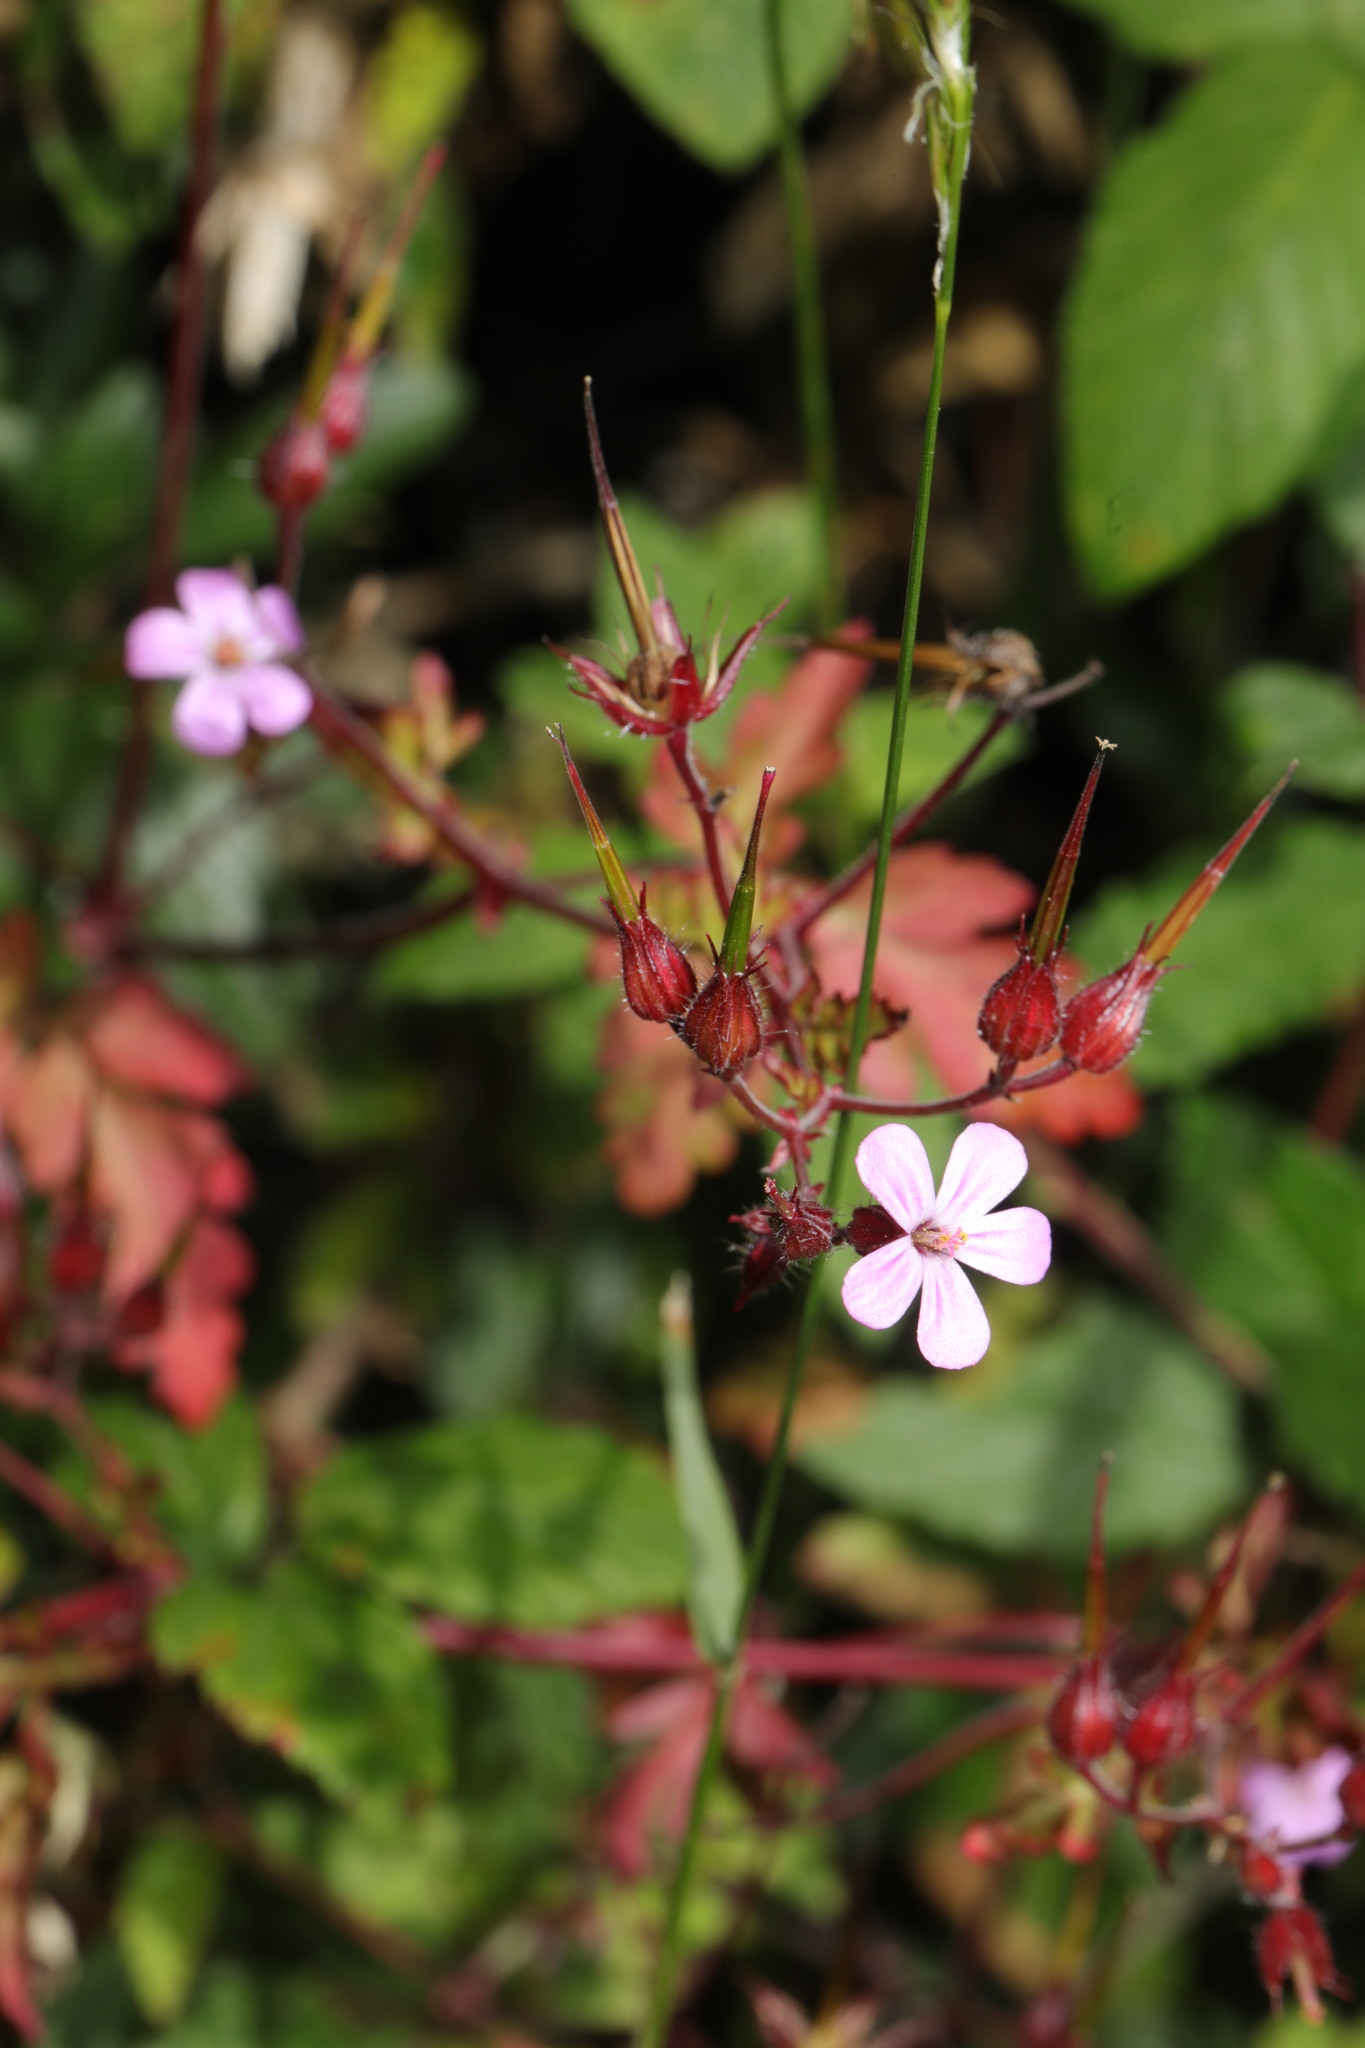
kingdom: Plantae
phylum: Tracheophyta
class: Magnoliopsida
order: Geraniales
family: Geraniaceae
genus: Geranium
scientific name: Geranium robertianum
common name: Herb-robert
